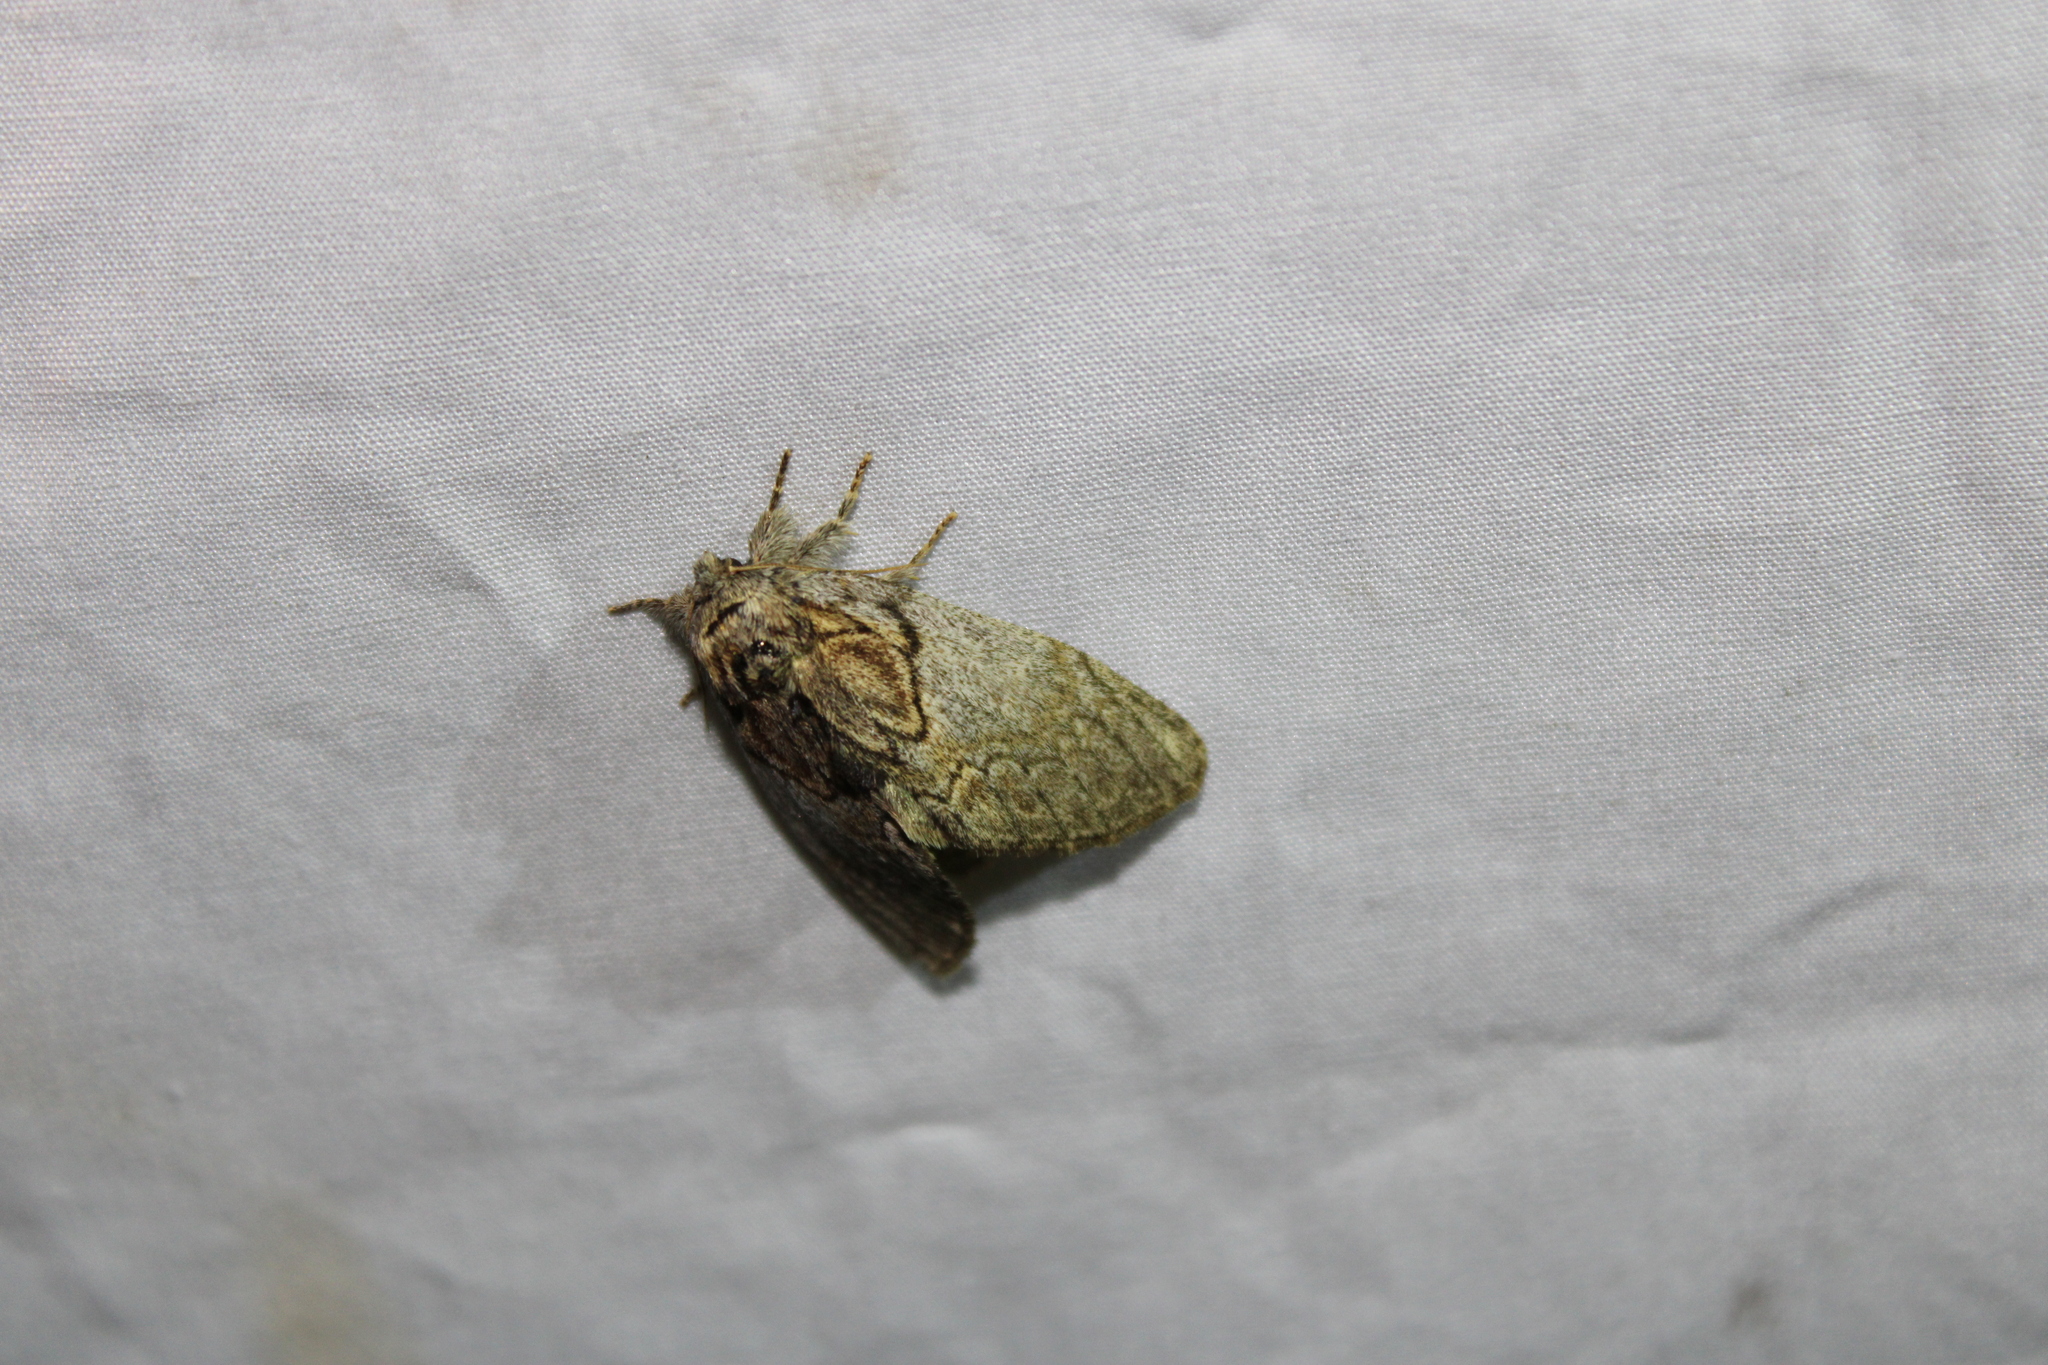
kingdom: Animalia
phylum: Arthropoda
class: Insecta
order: Lepidoptera
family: Notodontidae
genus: Peridea
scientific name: Peridea basitriens
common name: Oval-based prominent
